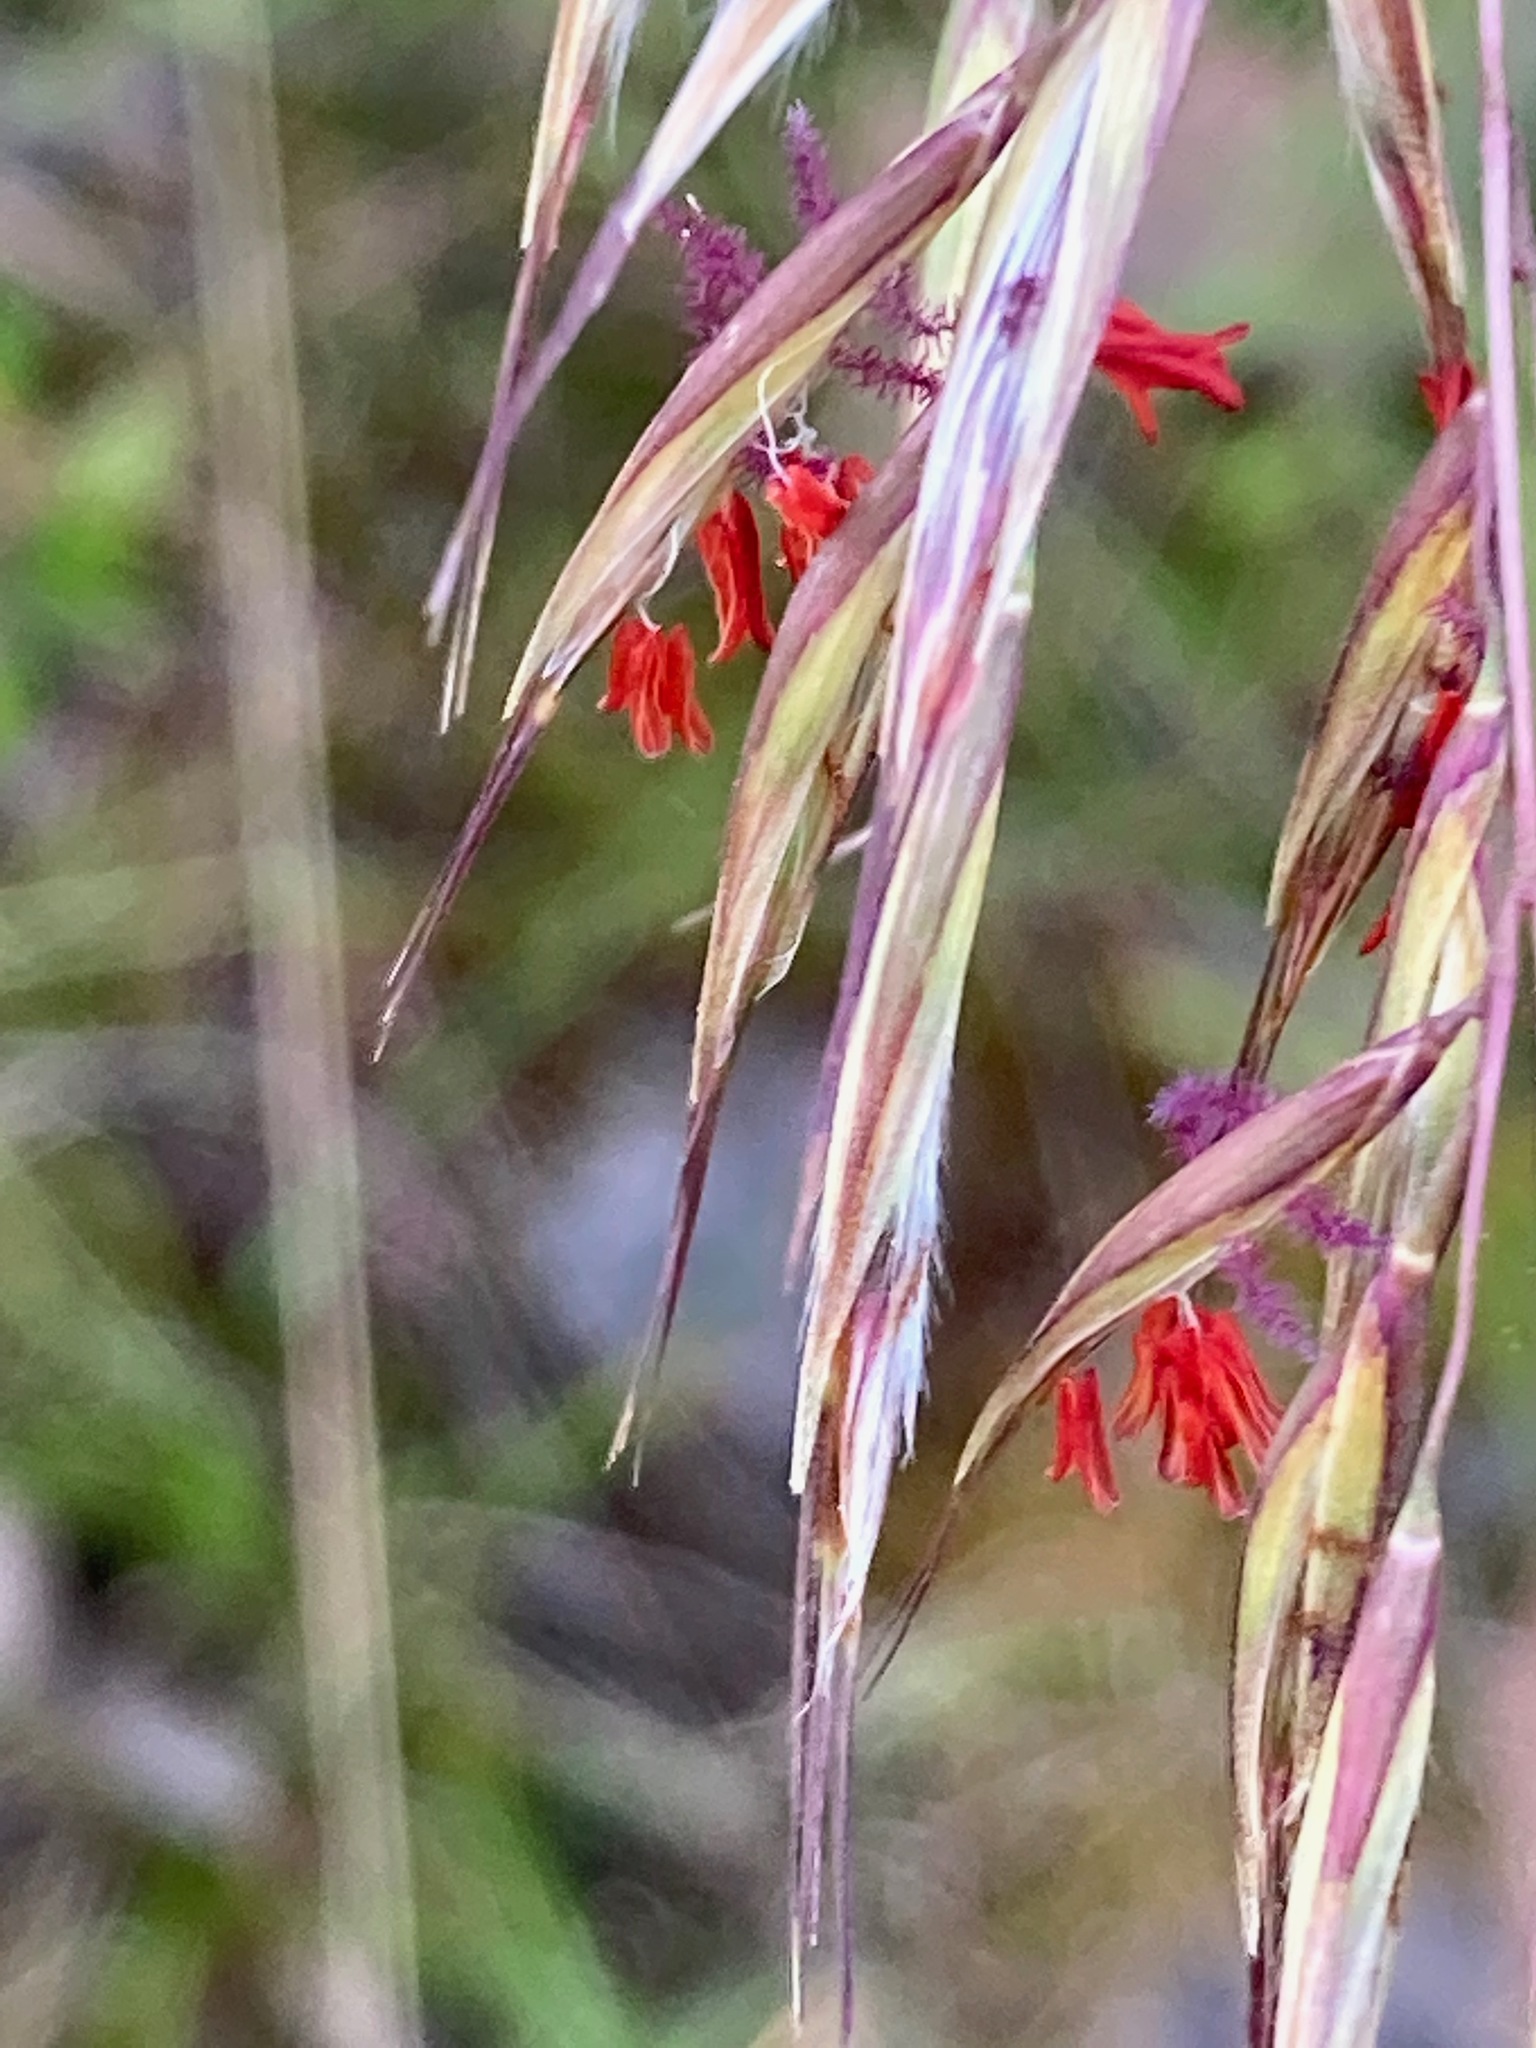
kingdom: Plantae
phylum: Tracheophyta
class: Liliopsida
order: Poales
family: Poaceae
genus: Rytidosperma
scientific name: Rytidosperma pallidum
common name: Red-anther wallaby grass
